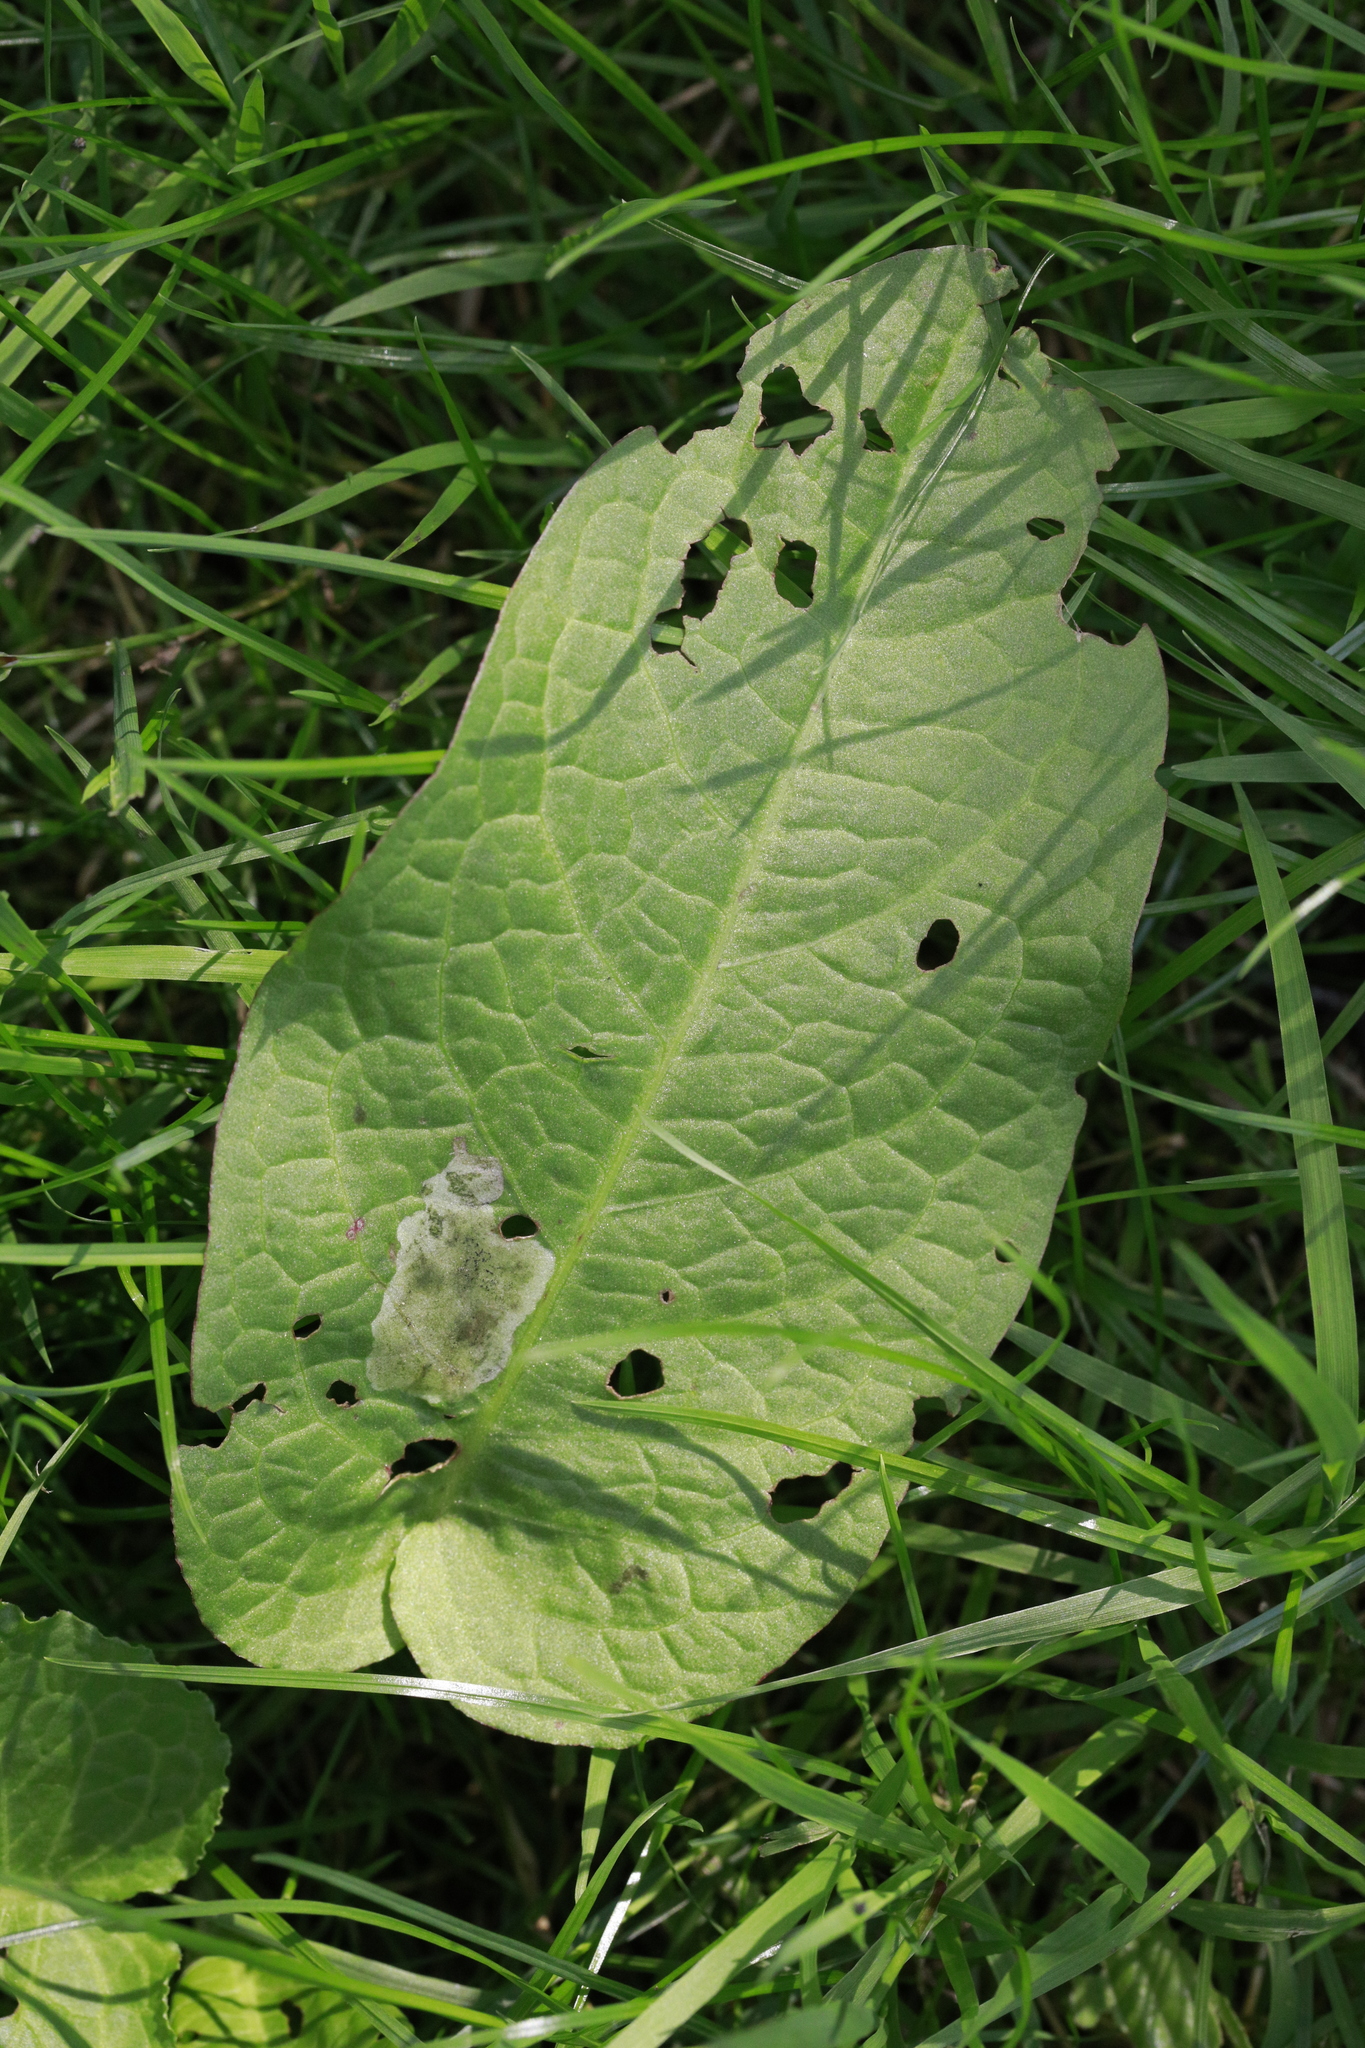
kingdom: Plantae
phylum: Tracheophyta
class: Magnoliopsida
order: Caryophyllales
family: Polygonaceae
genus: Rumex
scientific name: Rumex obtusifolius
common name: Bitter dock
